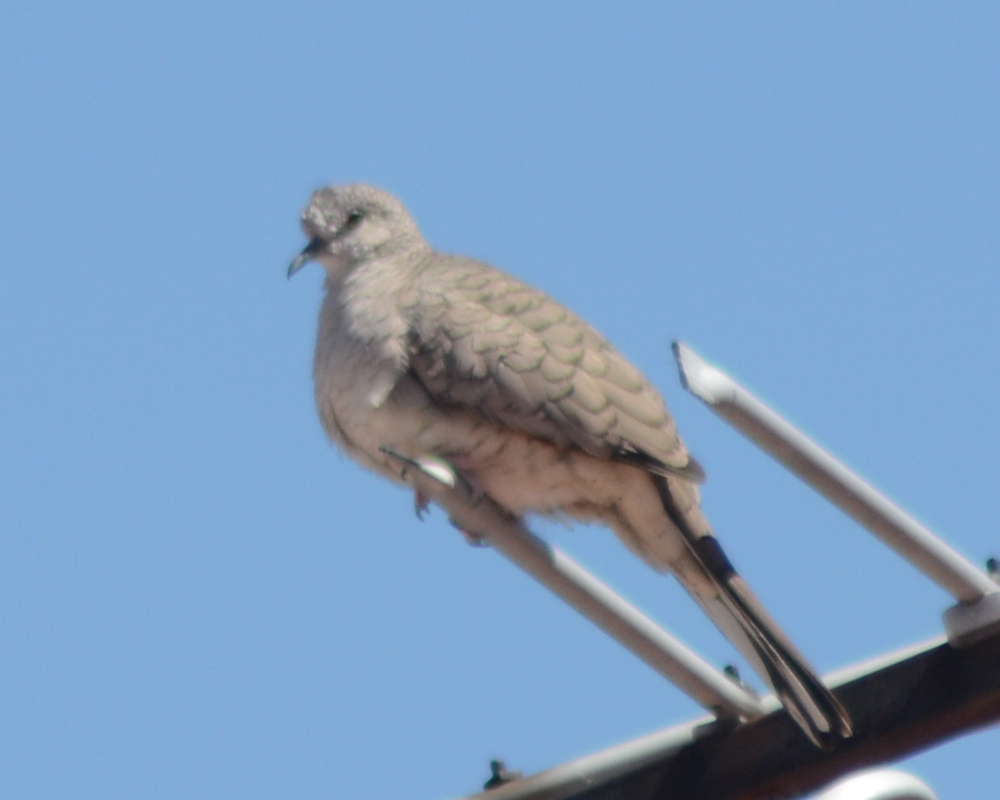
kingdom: Animalia
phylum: Chordata
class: Aves
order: Columbiformes
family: Columbidae
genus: Columbina
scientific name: Columbina inca
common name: Inca dove
